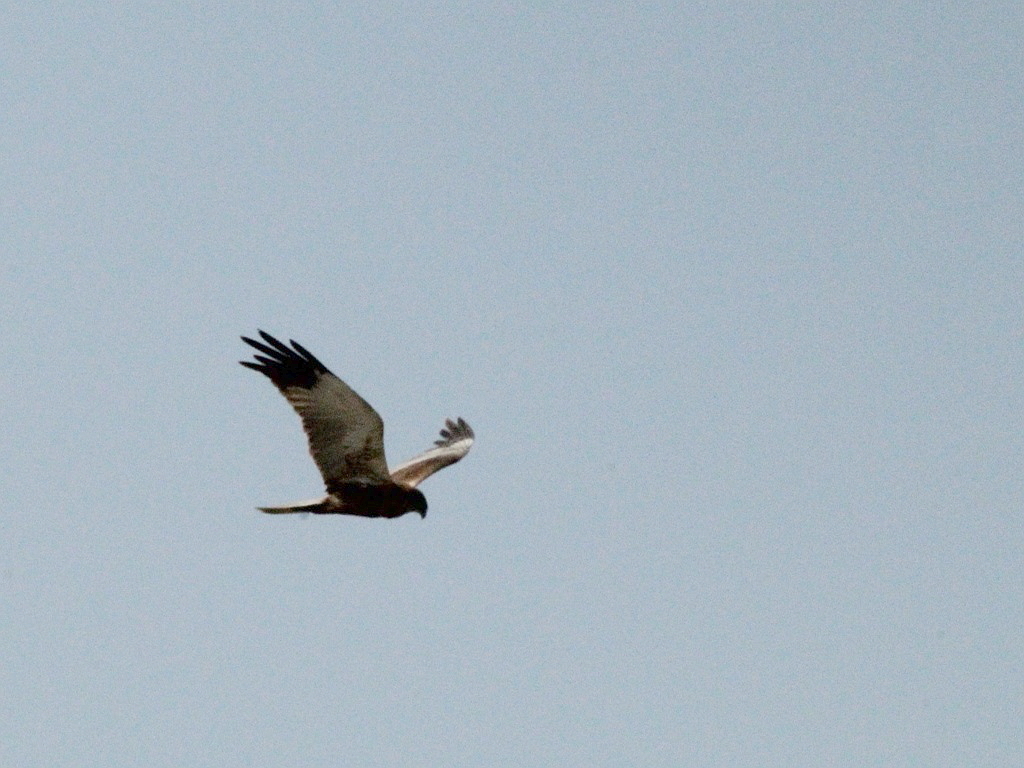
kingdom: Animalia
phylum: Chordata
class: Aves
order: Accipitriformes
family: Accipitridae
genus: Circus
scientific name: Circus aeruginosus
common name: Western marsh harrier
